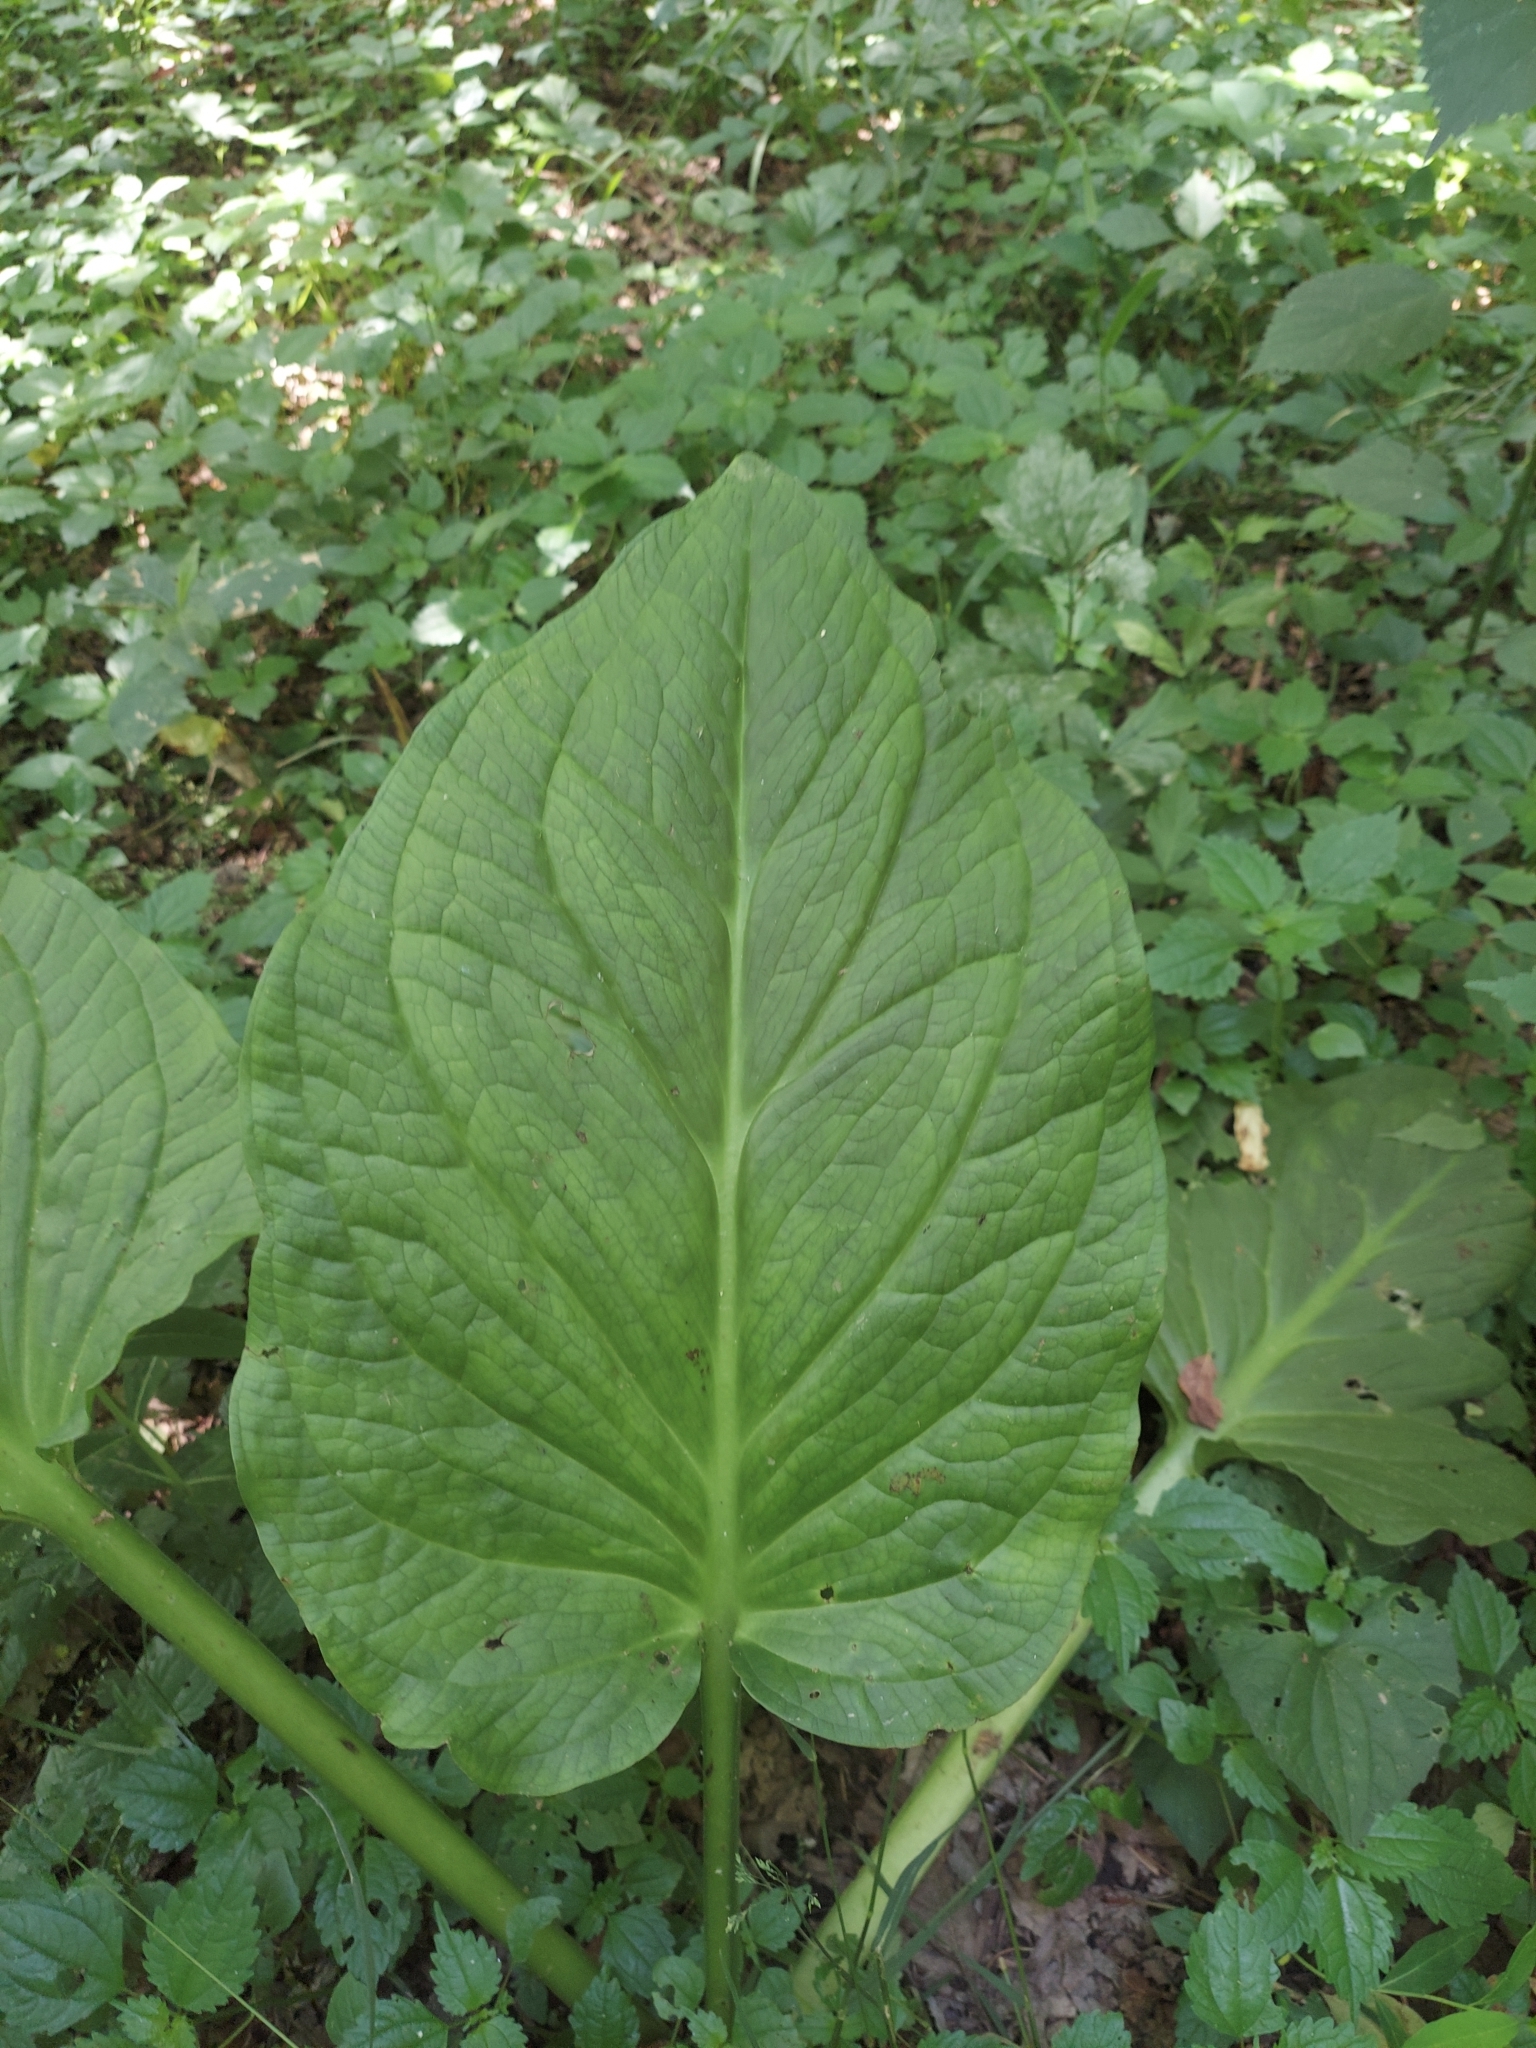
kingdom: Plantae
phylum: Tracheophyta
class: Liliopsida
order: Alismatales
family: Araceae
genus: Symplocarpus
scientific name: Symplocarpus foetidus
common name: Eastern skunk cabbage
